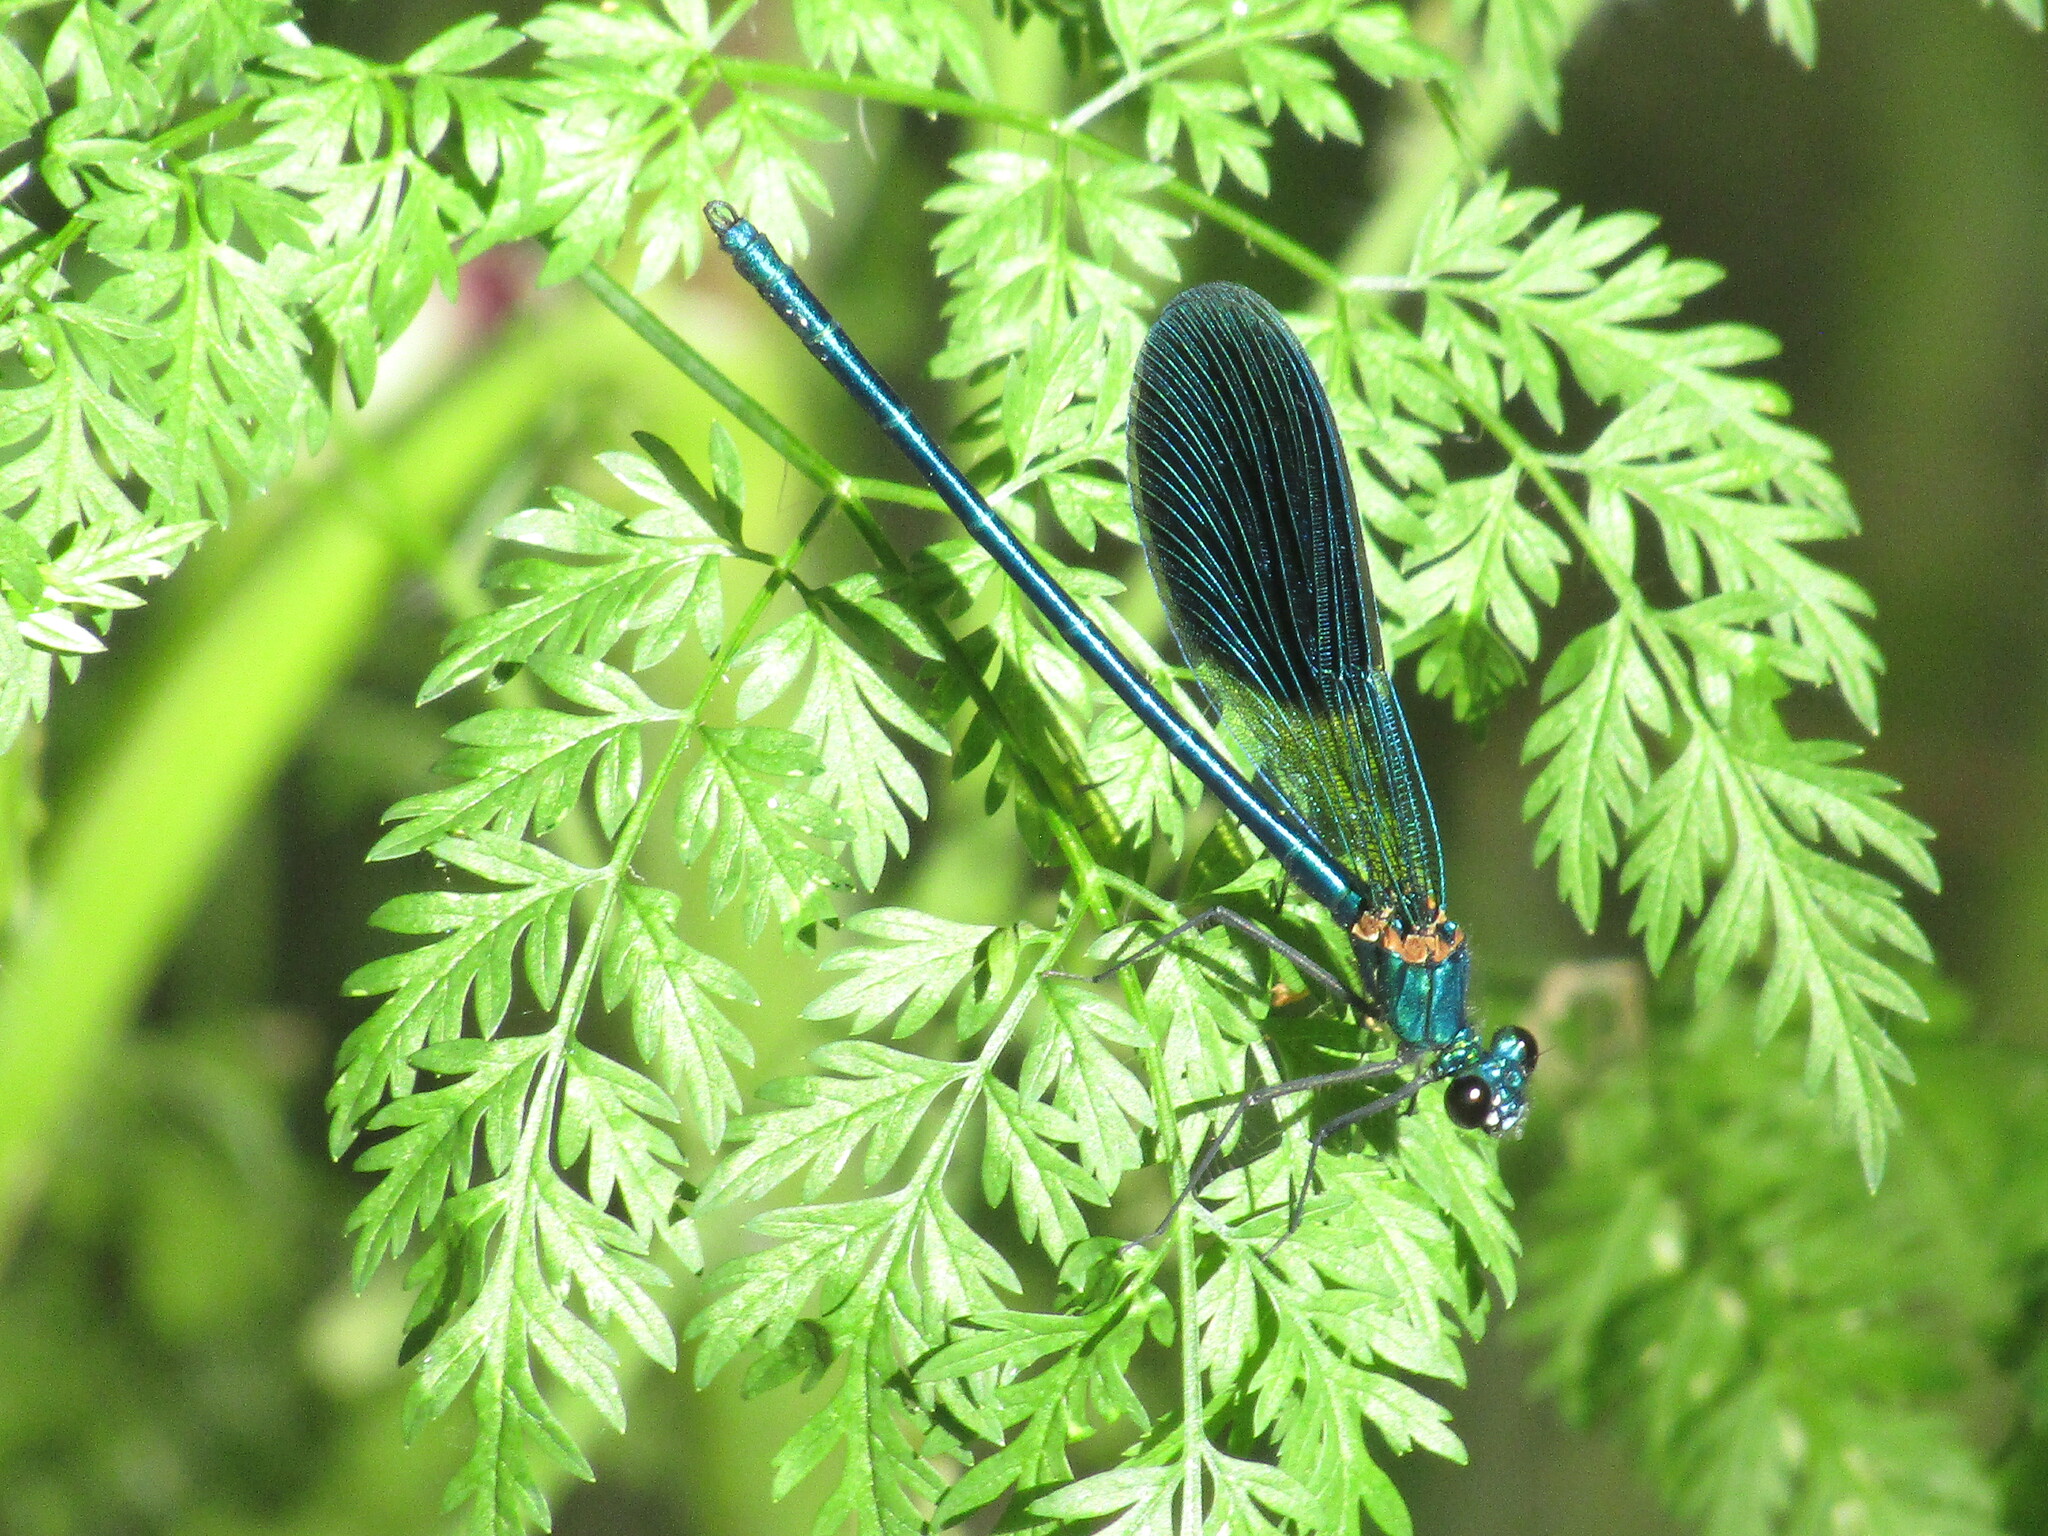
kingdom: Animalia
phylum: Arthropoda
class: Insecta
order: Odonata
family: Calopterygidae
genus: Calopteryx
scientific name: Calopteryx splendens
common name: Banded demoiselle
